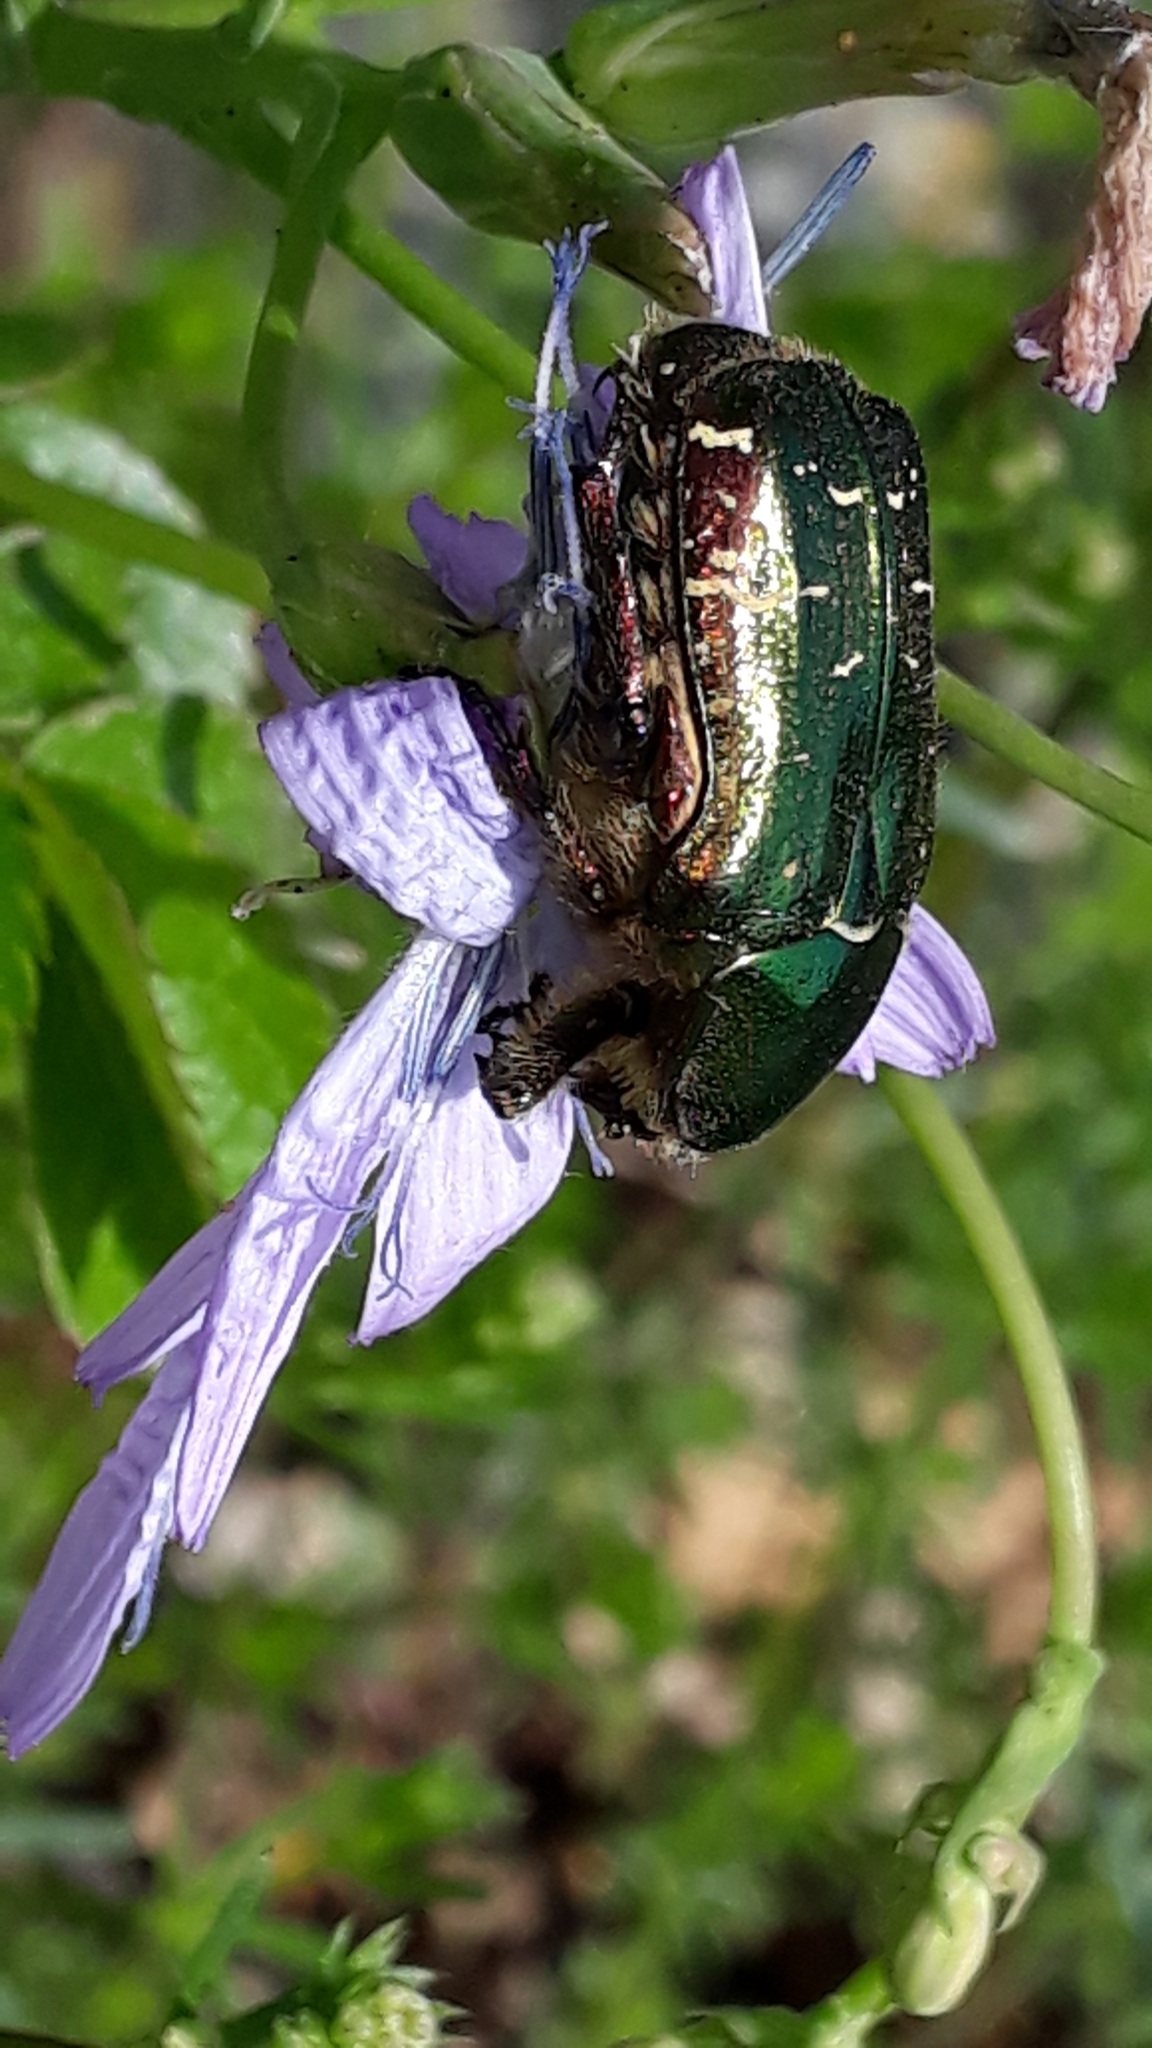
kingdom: Animalia
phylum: Arthropoda
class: Insecta
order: Coleoptera
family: Scarabaeidae
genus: Cetonia
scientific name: Cetonia aurata
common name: Rose chafer
